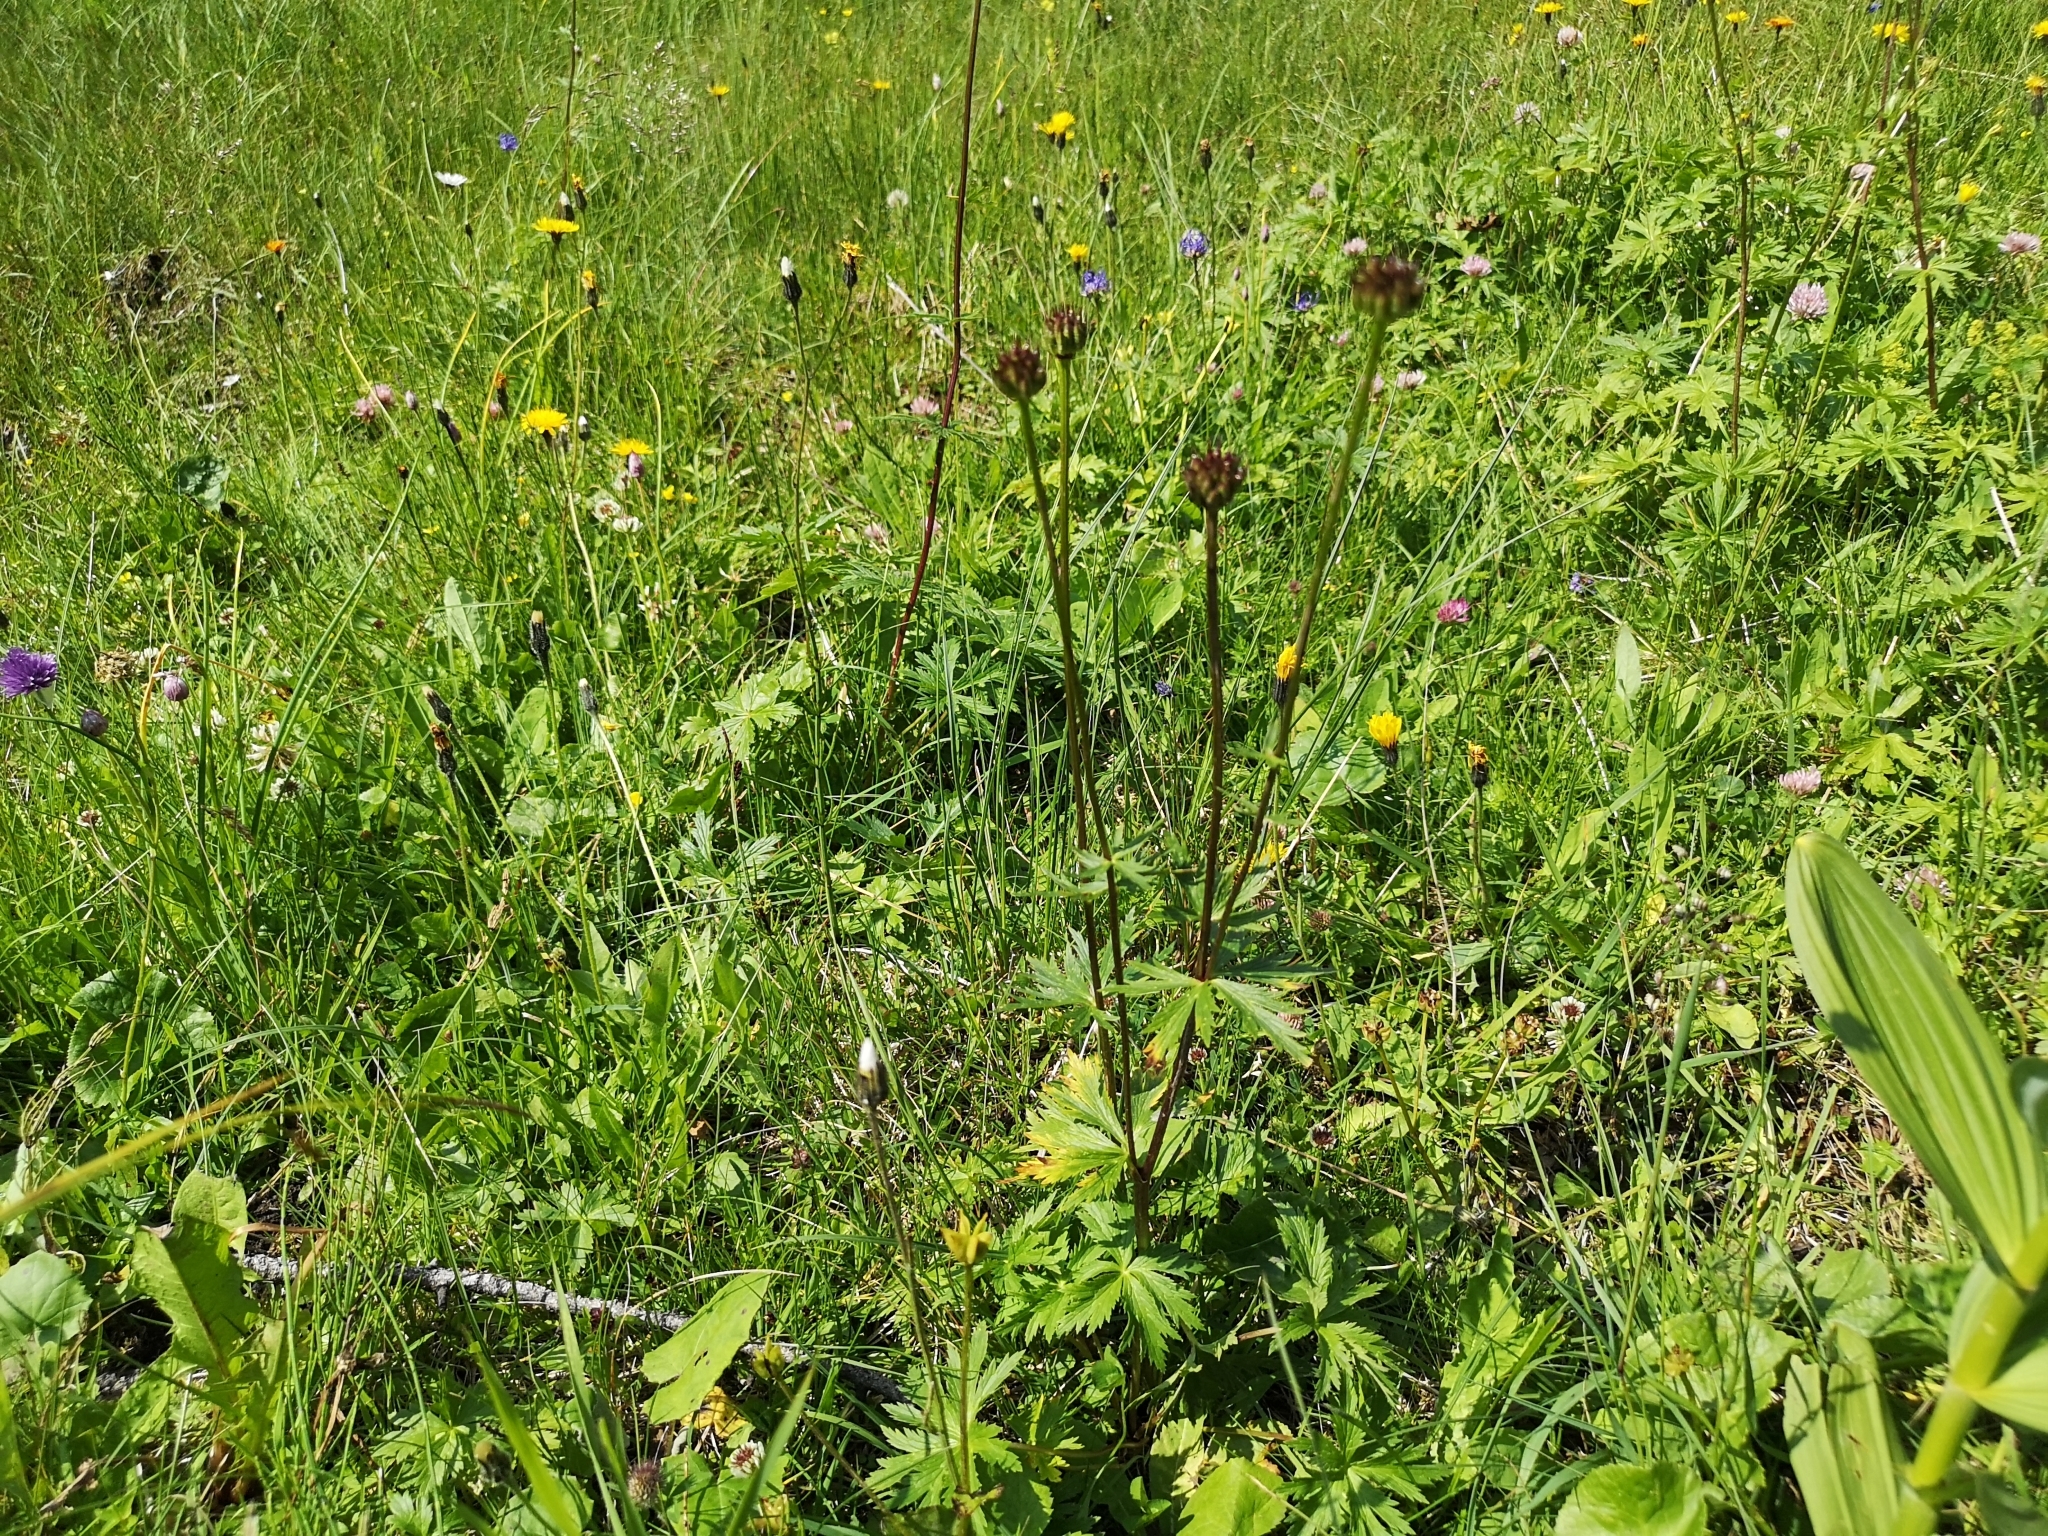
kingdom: Plantae
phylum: Tracheophyta
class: Magnoliopsida
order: Ranunculales
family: Ranunculaceae
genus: Trollius
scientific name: Trollius europaeus
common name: European globeflower
